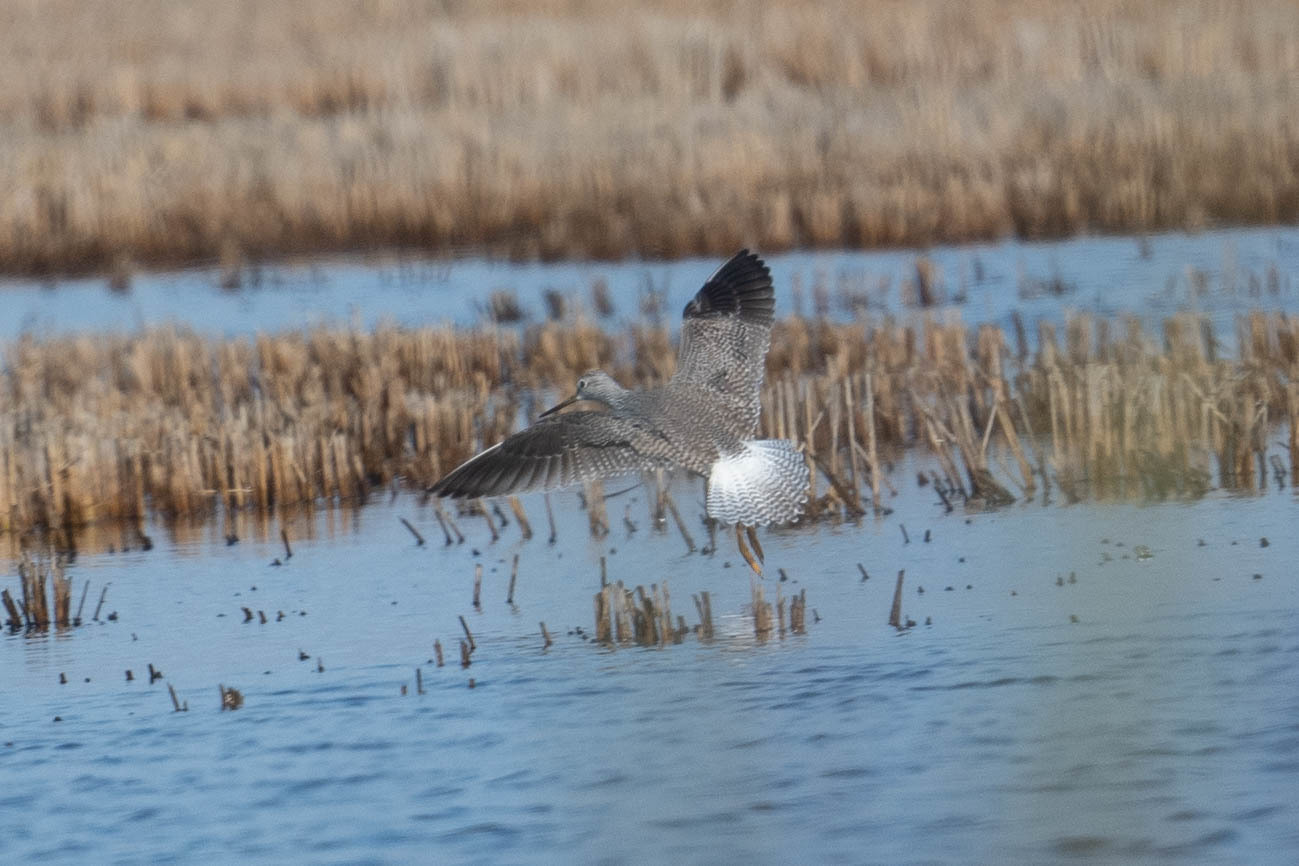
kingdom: Animalia
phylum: Chordata
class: Aves
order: Charadriiformes
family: Scolopacidae
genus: Tringa
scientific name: Tringa melanoleuca
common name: Greater yellowlegs
